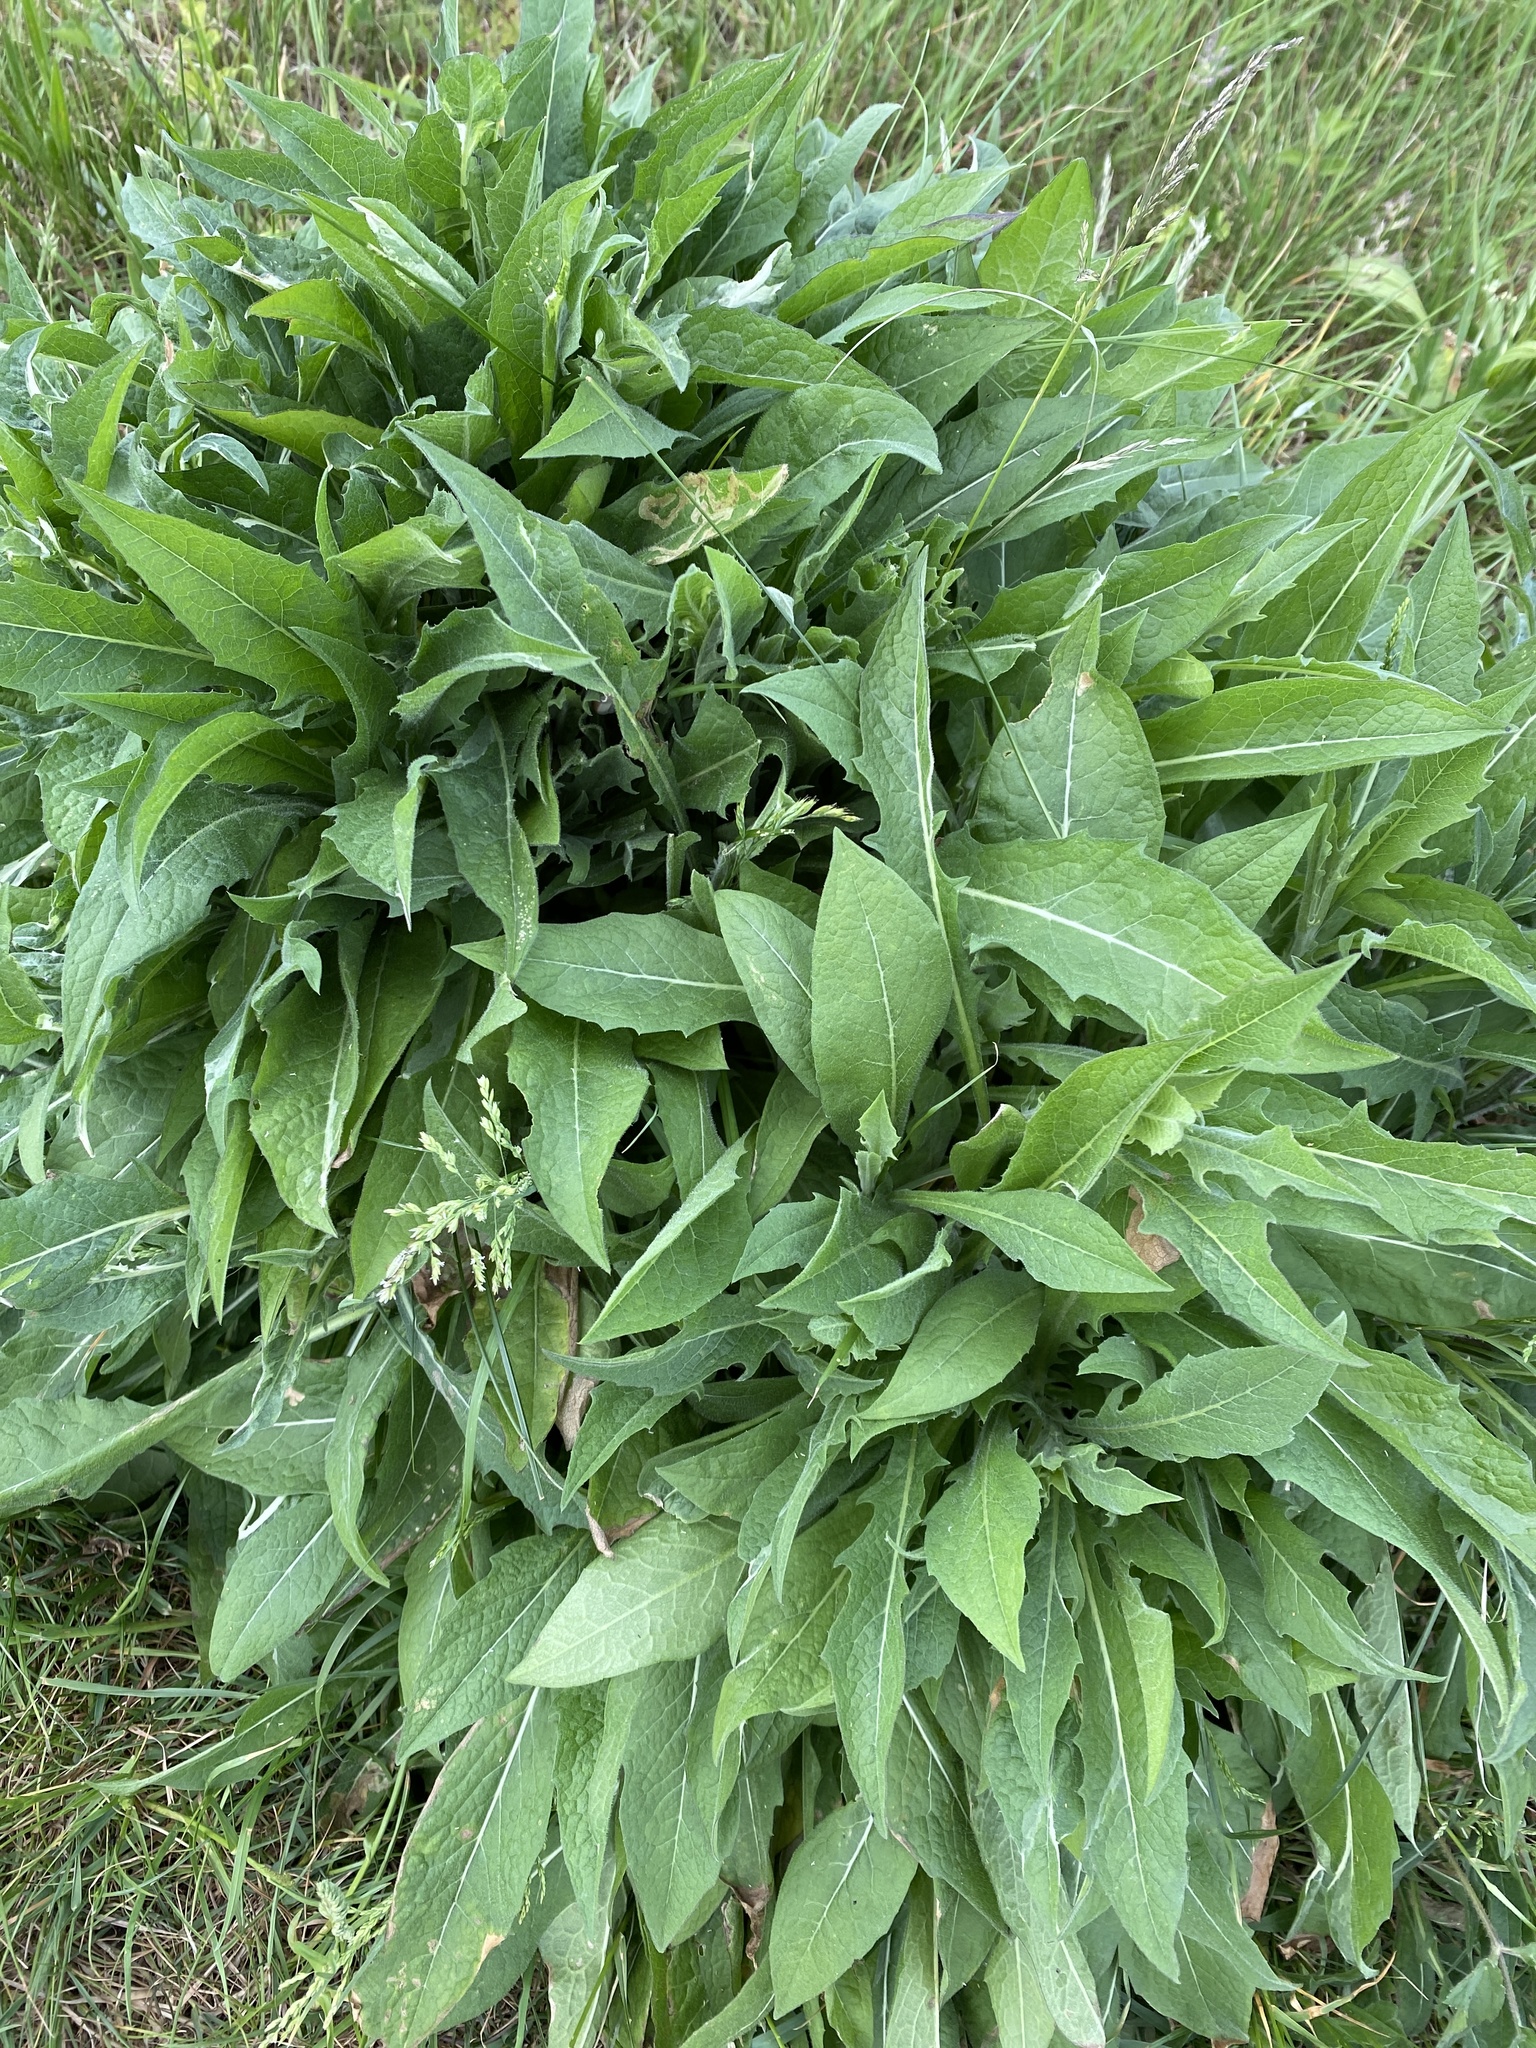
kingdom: Plantae
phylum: Tracheophyta
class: Magnoliopsida
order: Asterales
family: Asteraceae
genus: Centaurea
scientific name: Centaurea nigra
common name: Lesser knapweed
